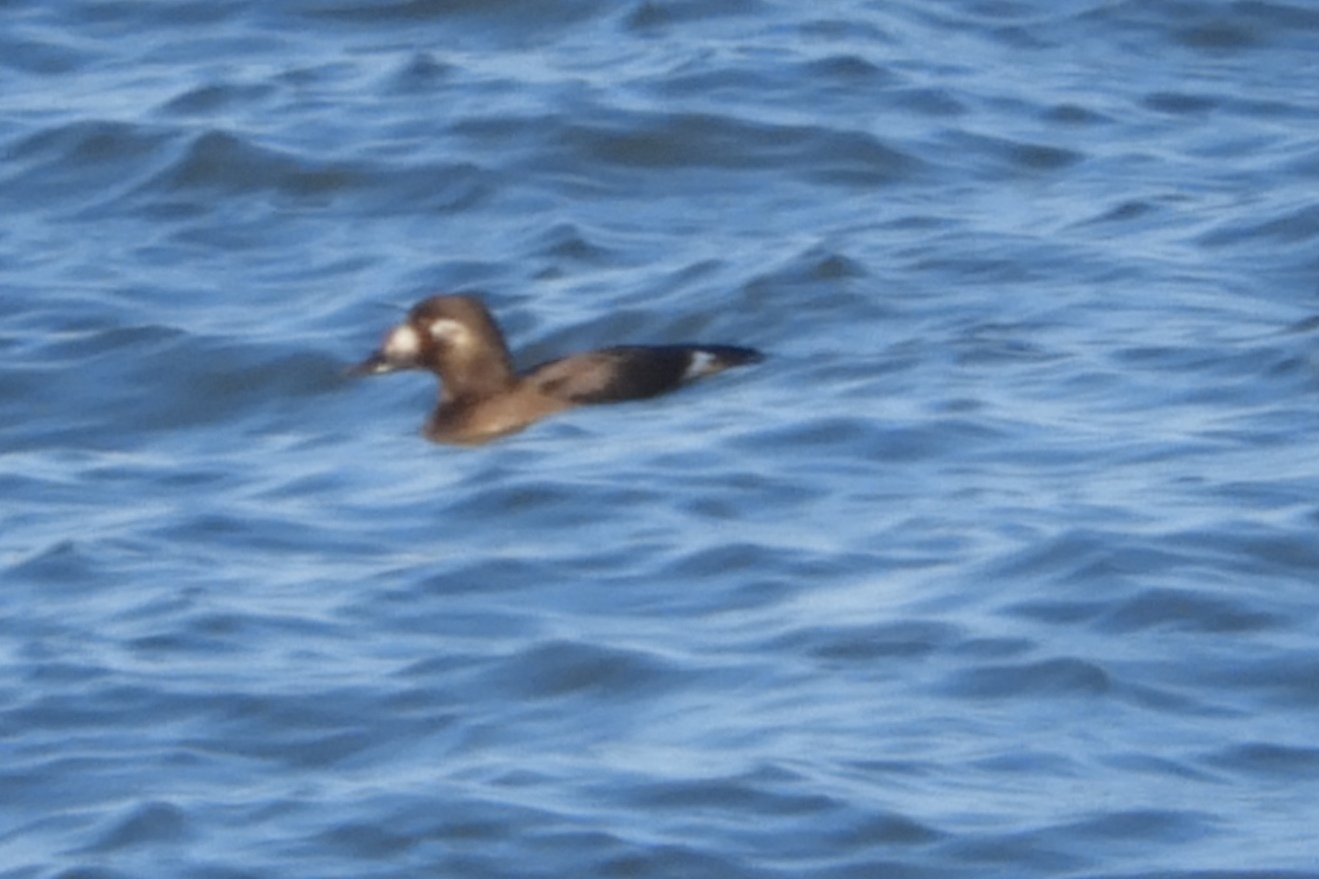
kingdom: Animalia
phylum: Chordata
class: Aves
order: Anseriformes
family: Anatidae
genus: Melanitta
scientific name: Melanitta deglandi
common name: White-winged scoter
